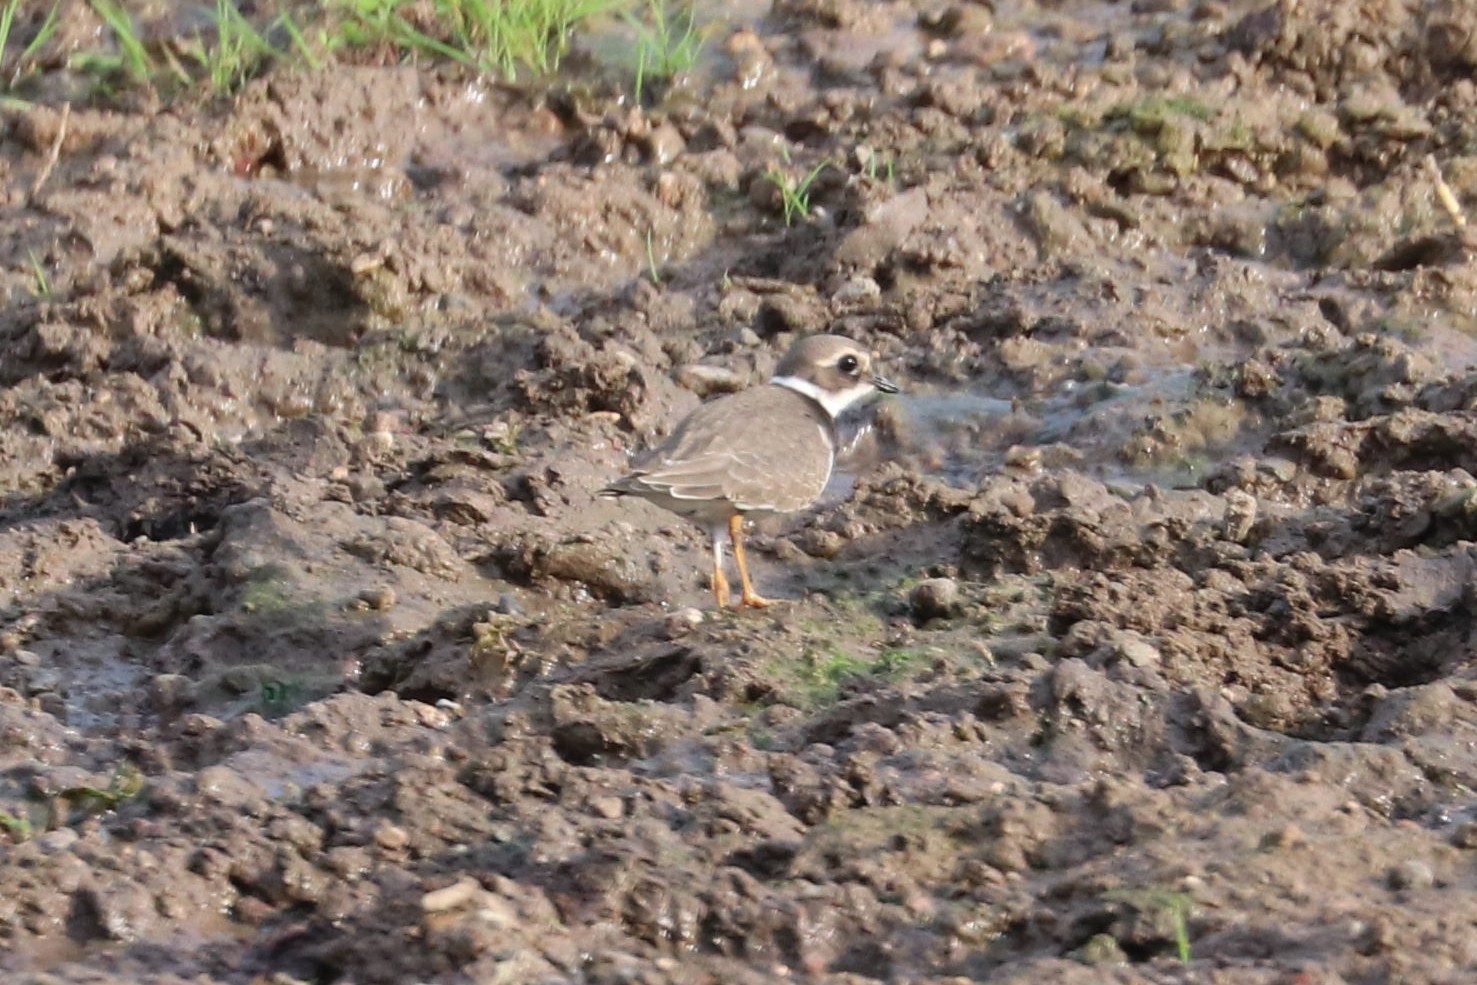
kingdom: Animalia
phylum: Chordata
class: Aves
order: Charadriiformes
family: Charadriidae
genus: Charadrius
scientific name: Charadrius hiaticula
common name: Common ringed plover
